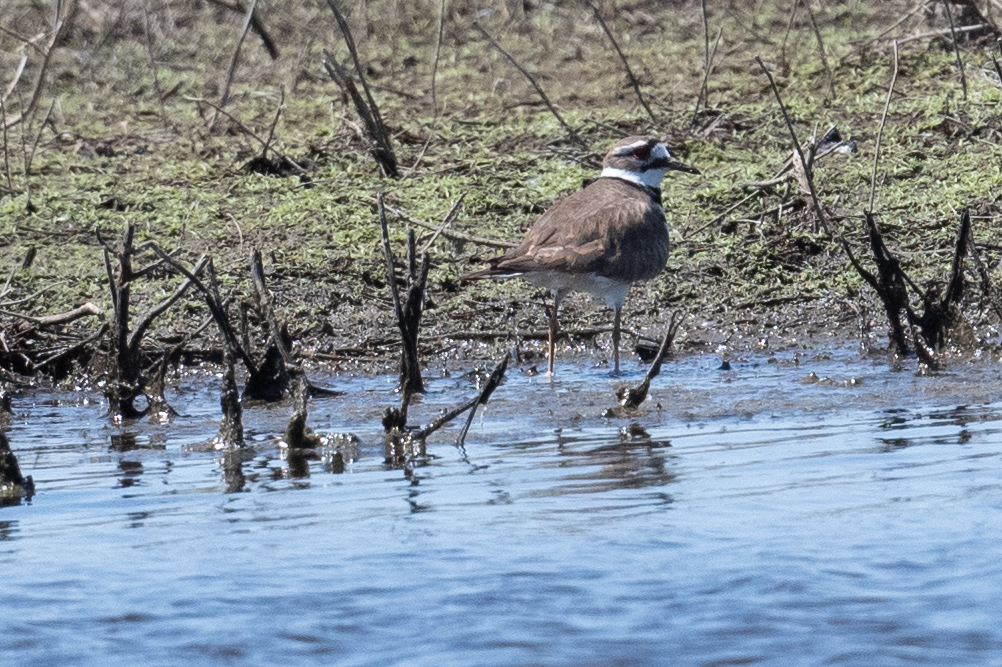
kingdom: Animalia
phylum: Chordata
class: Aves
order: Charadriiformes
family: Charadriidae
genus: Charadrius
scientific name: Charadrius vociferus
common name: Killdeer
